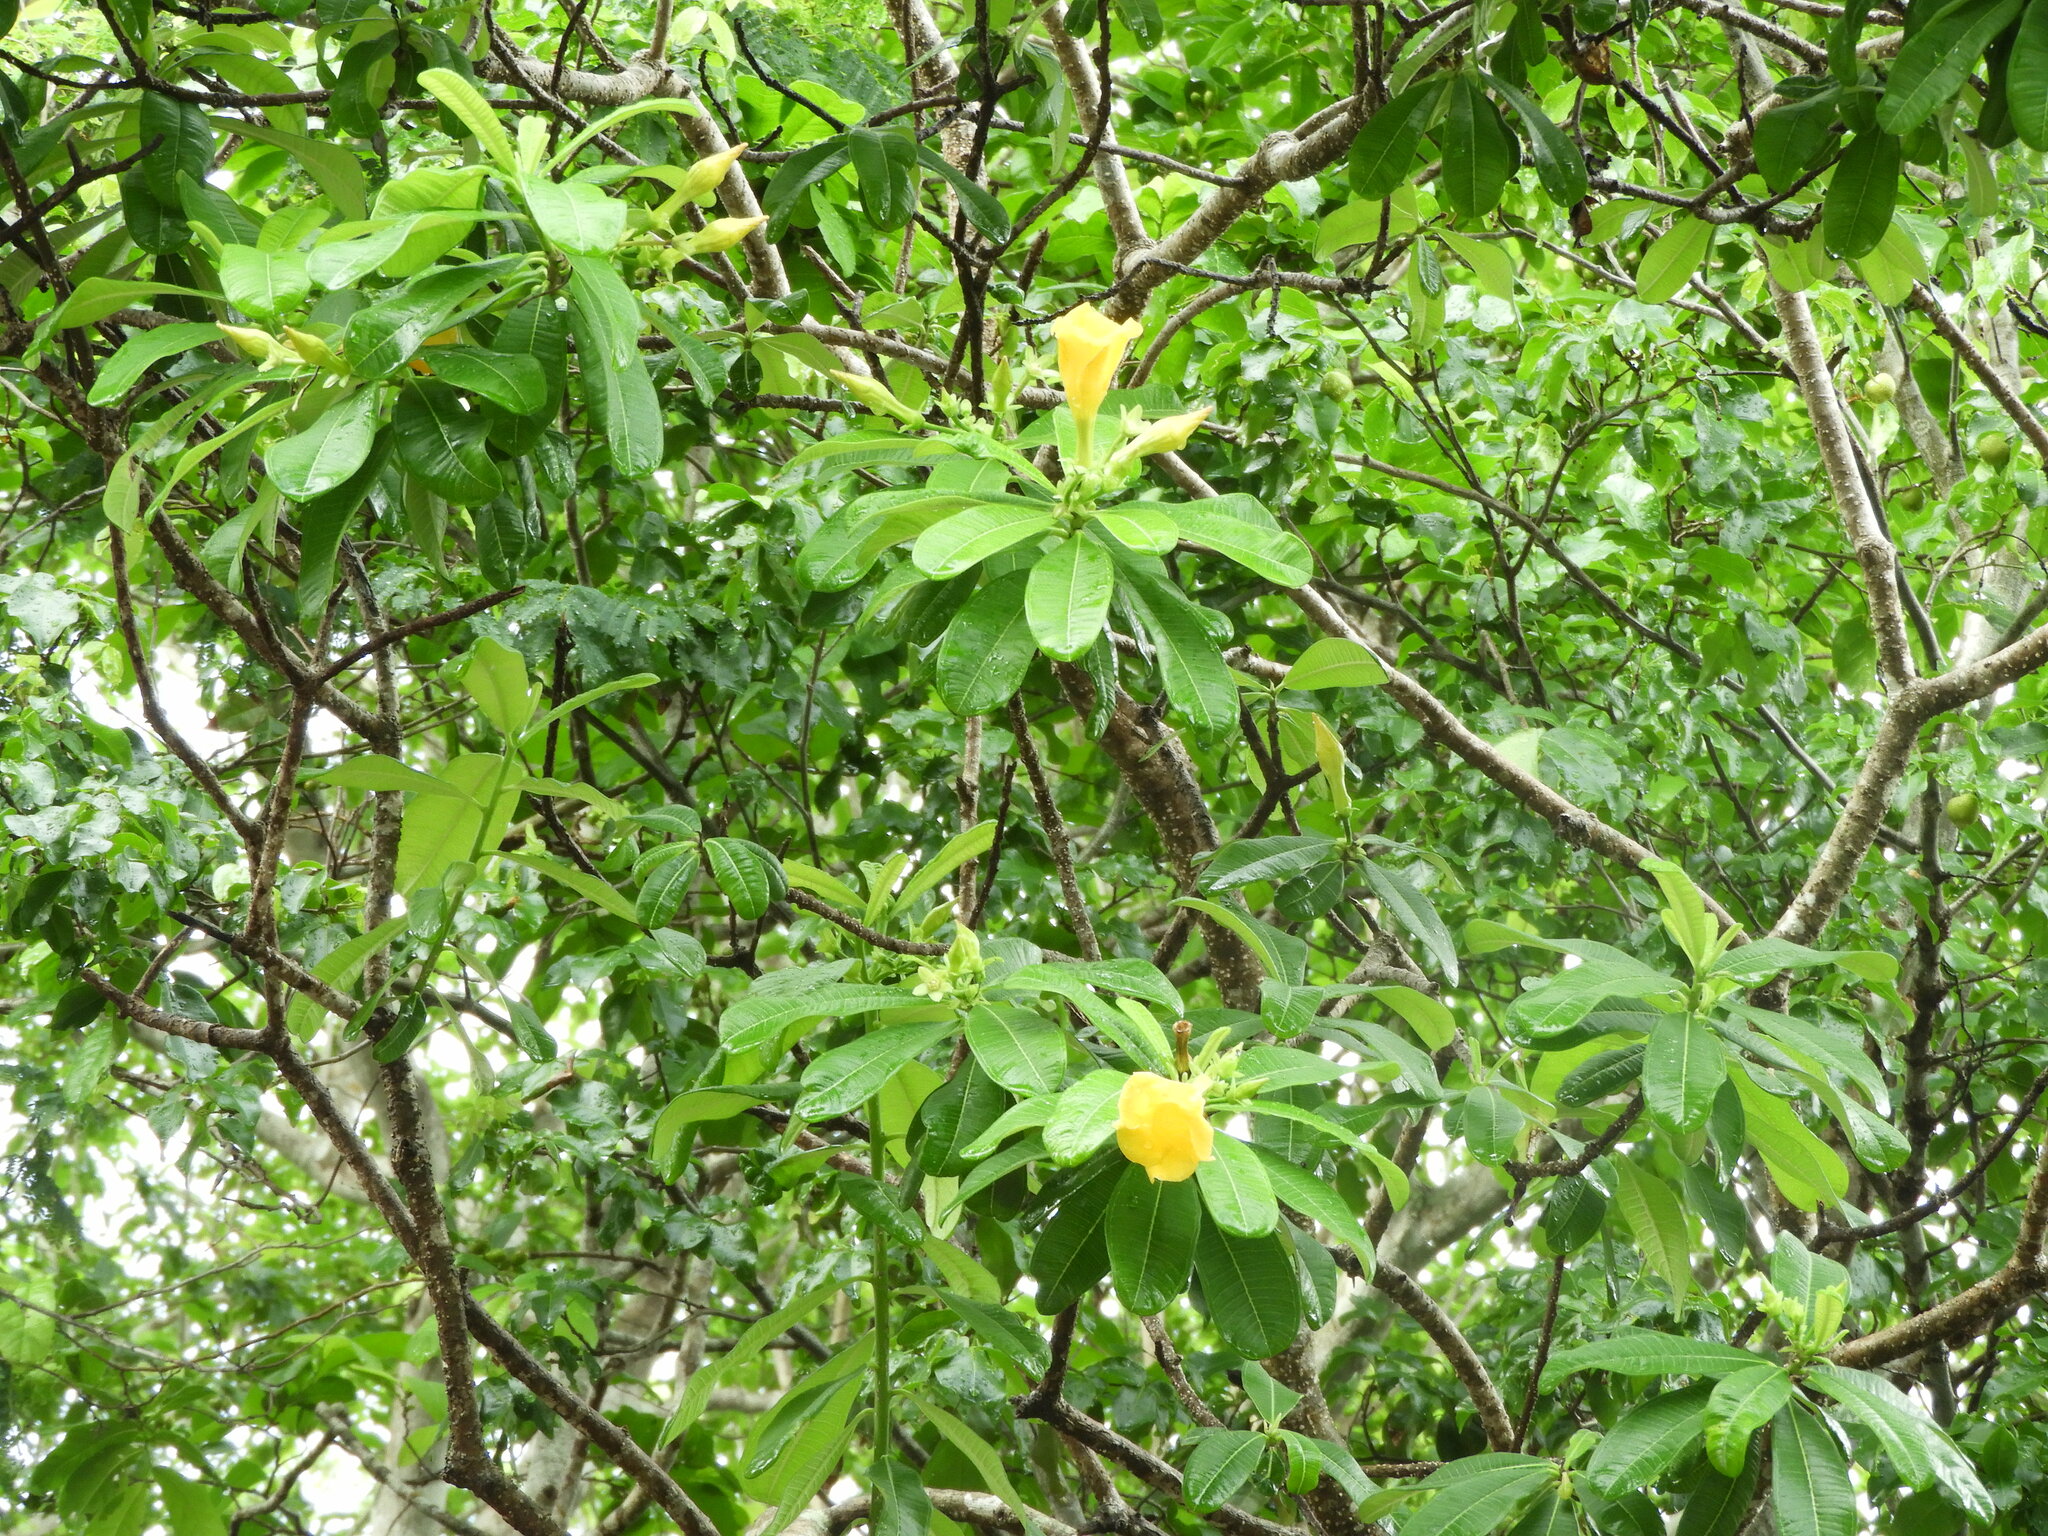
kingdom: Plantae
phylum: Tracheophyta
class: Magnoliopsida
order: Gentianales
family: Apocynaceae
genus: Cascabela
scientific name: Cascabela ovata
